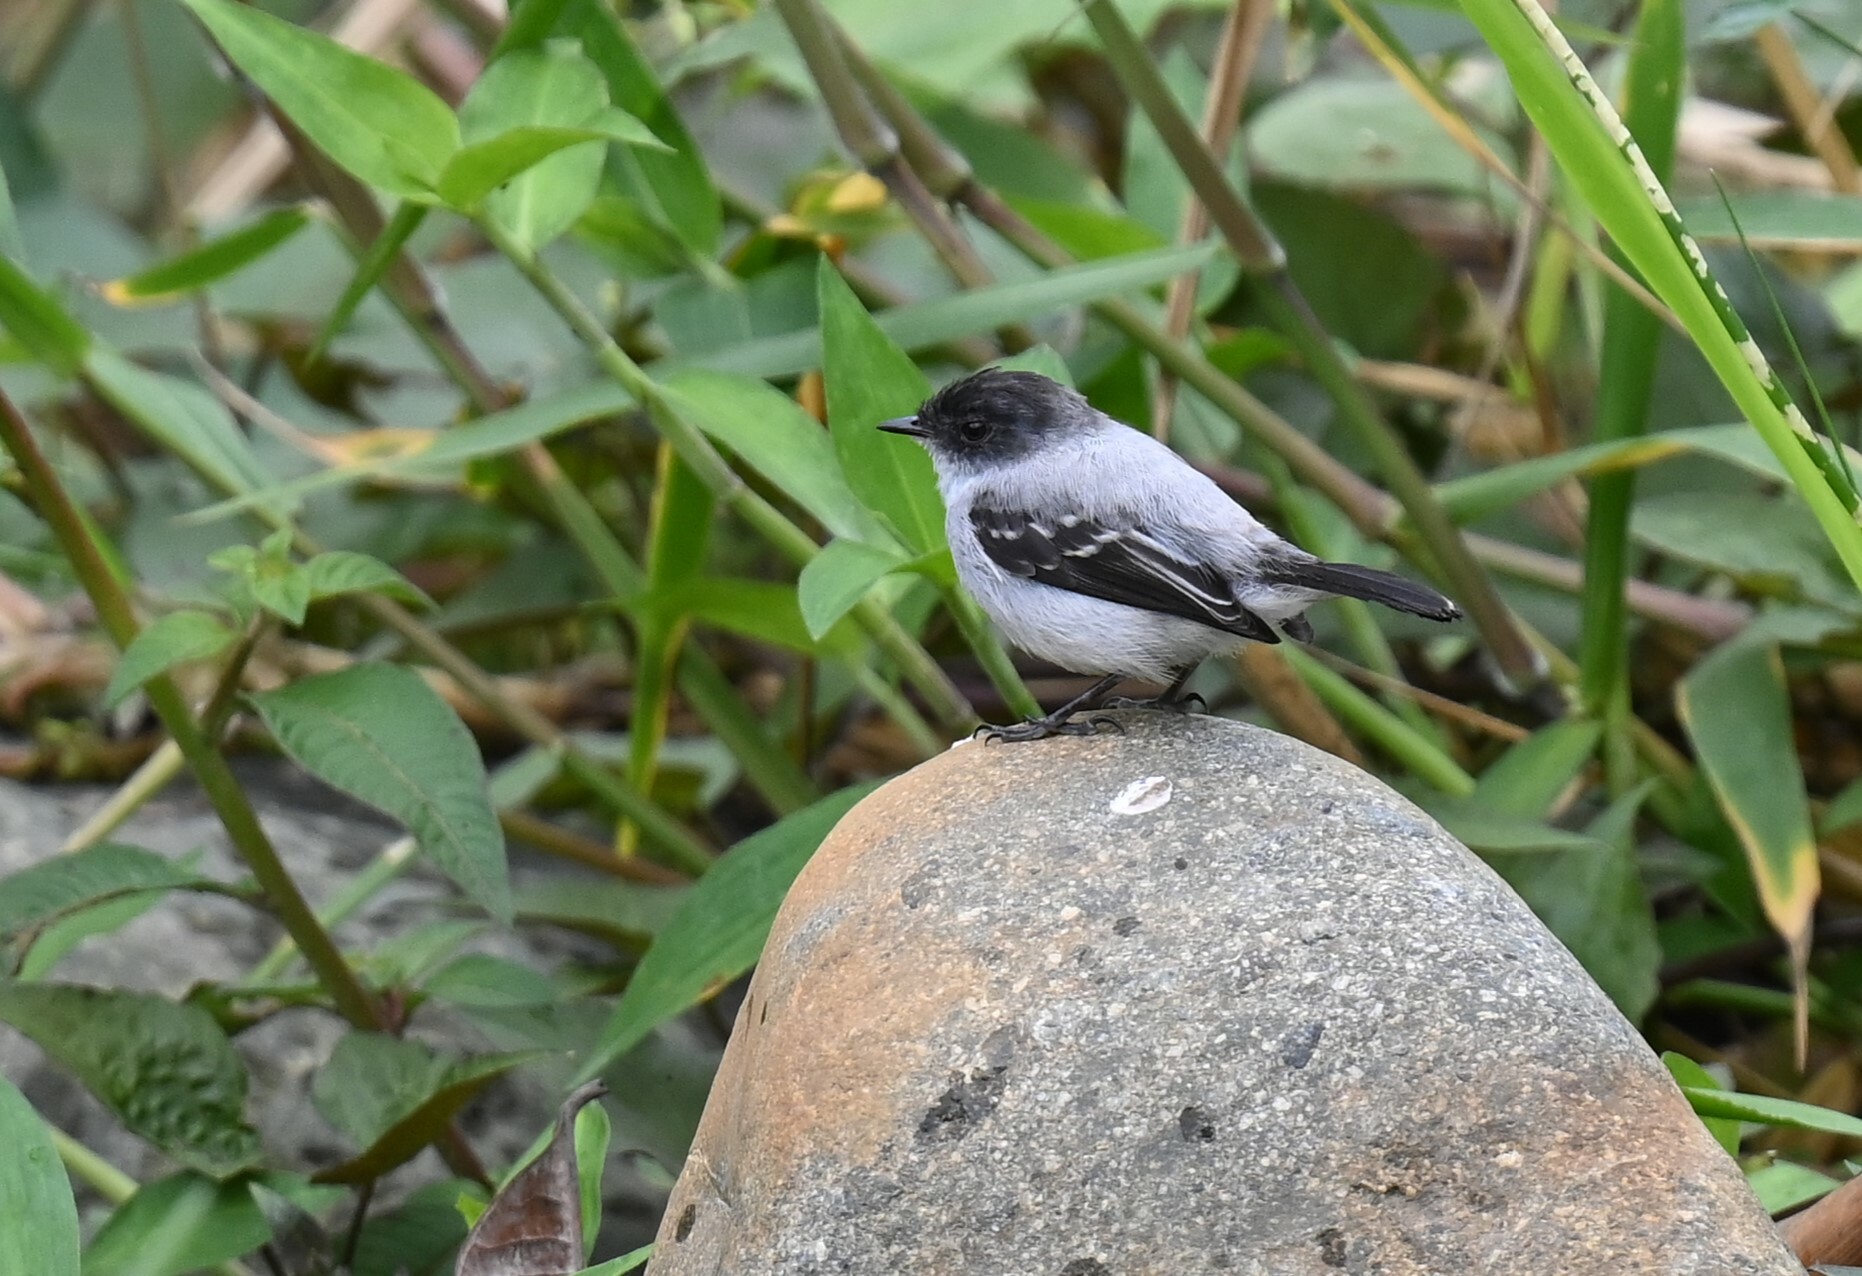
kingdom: Animalia
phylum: Chordata
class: Aves
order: Passeriformes
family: Tyrannidae
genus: Serpophaga
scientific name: Serpophaga cinerea
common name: Torrent tyrannulet
